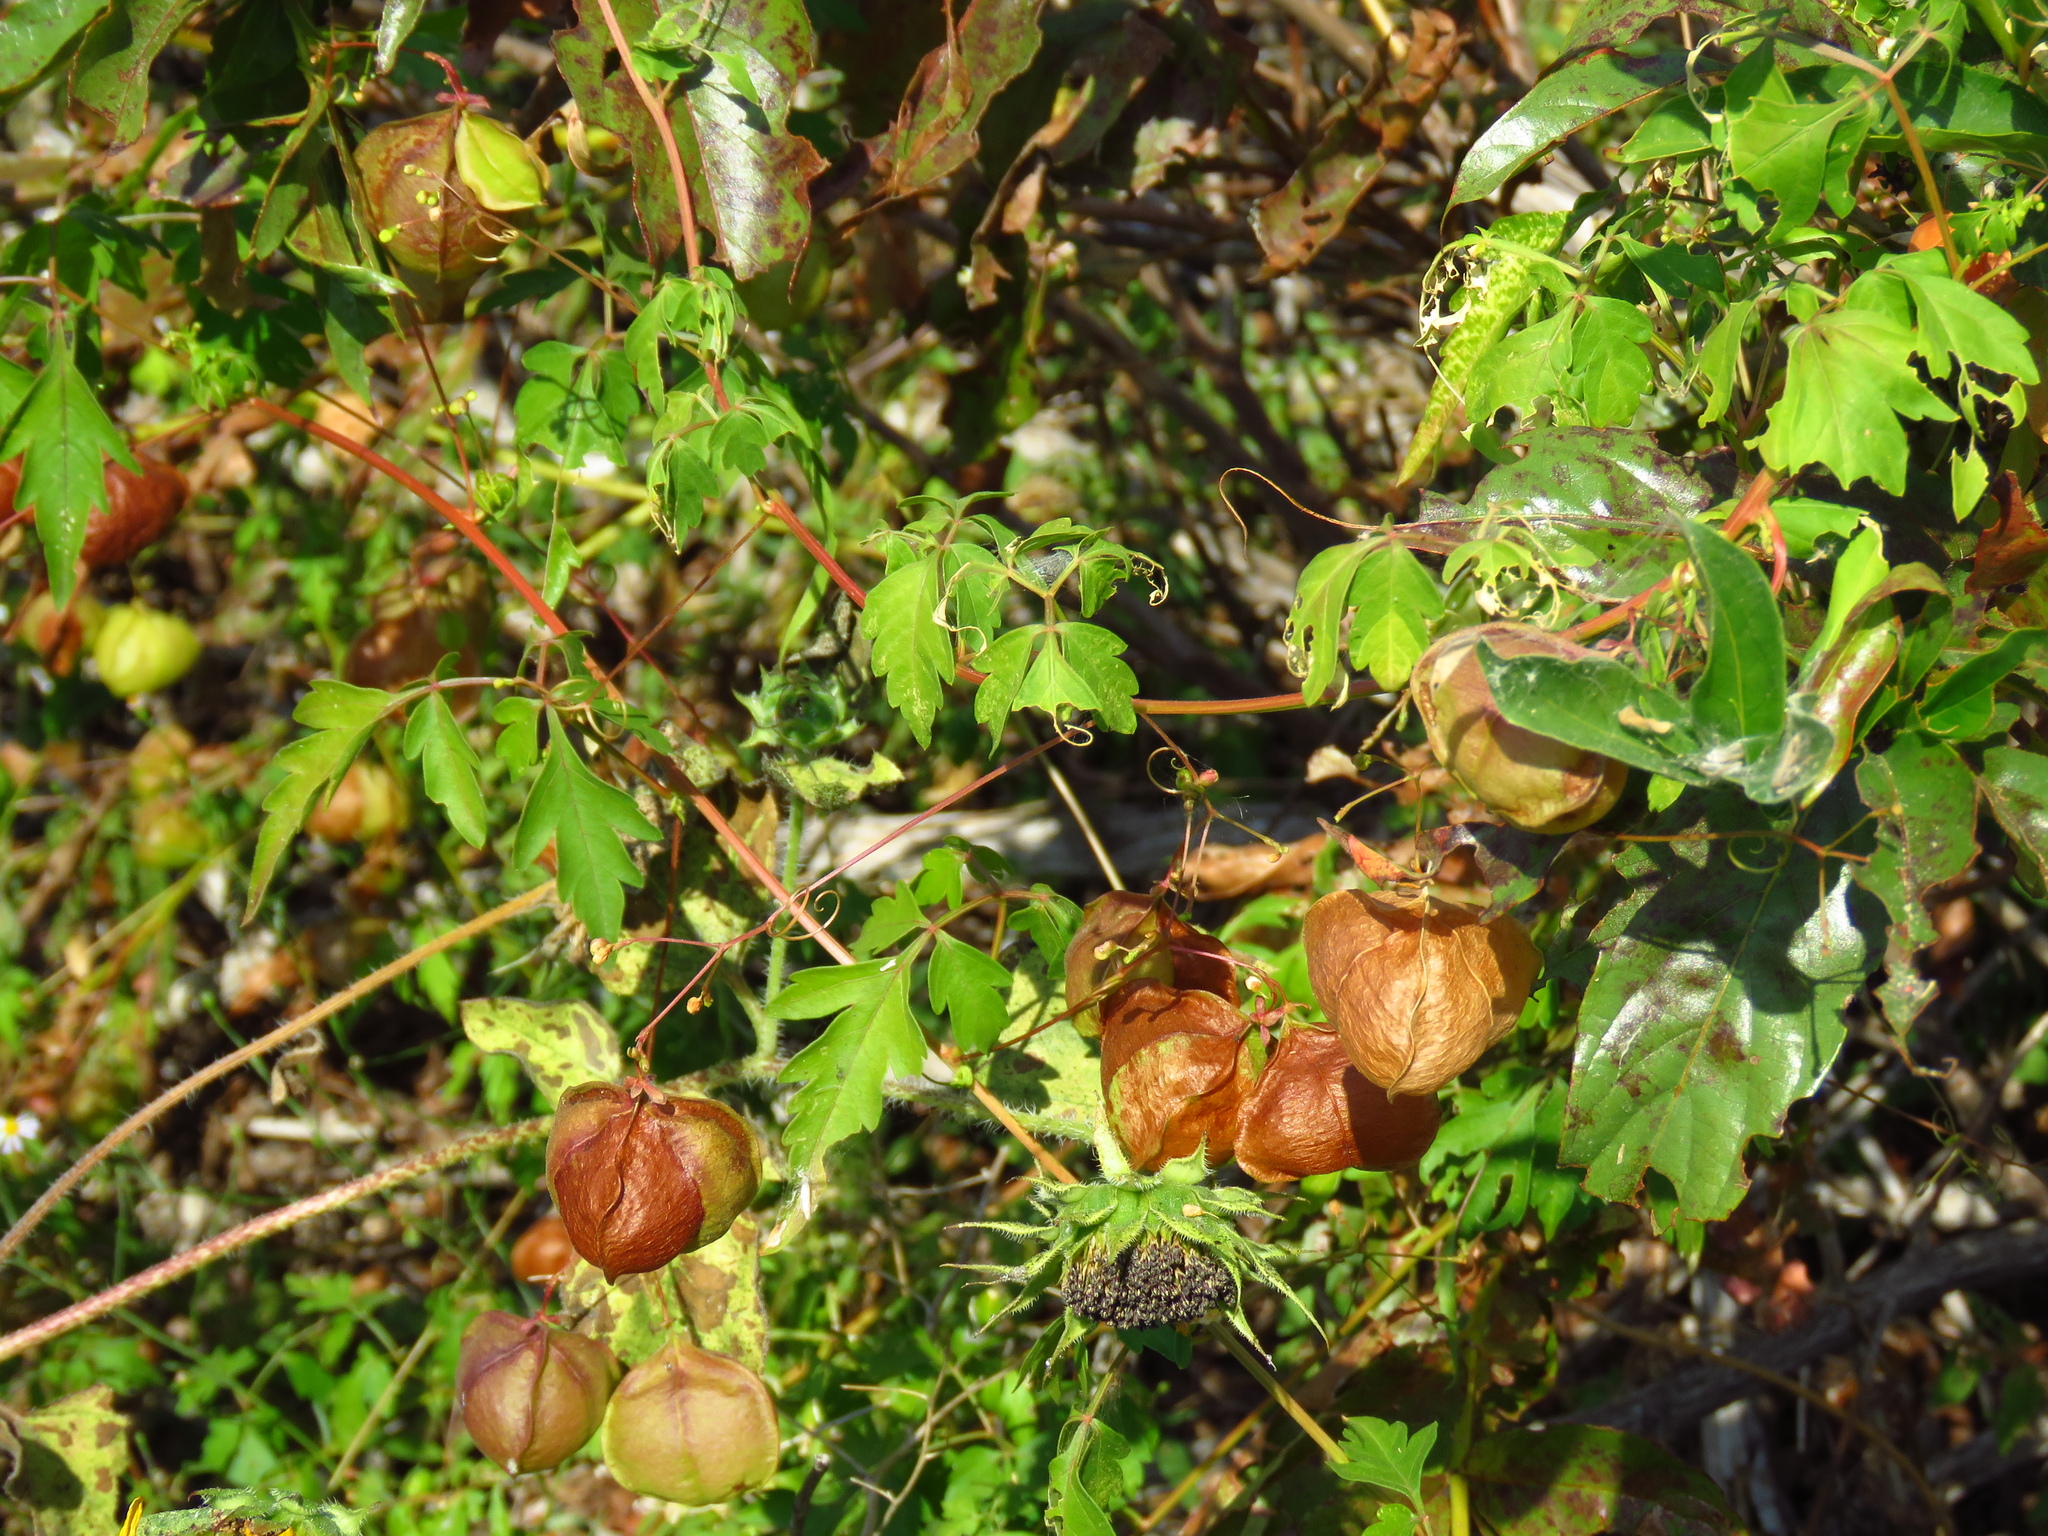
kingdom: Plantae
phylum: Tracheophyta
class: Magnoliopsida
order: Sapindales
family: Sapindaceae
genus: Cardiospermum
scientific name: Cardiospermum halicacabum
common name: Balloon vine
